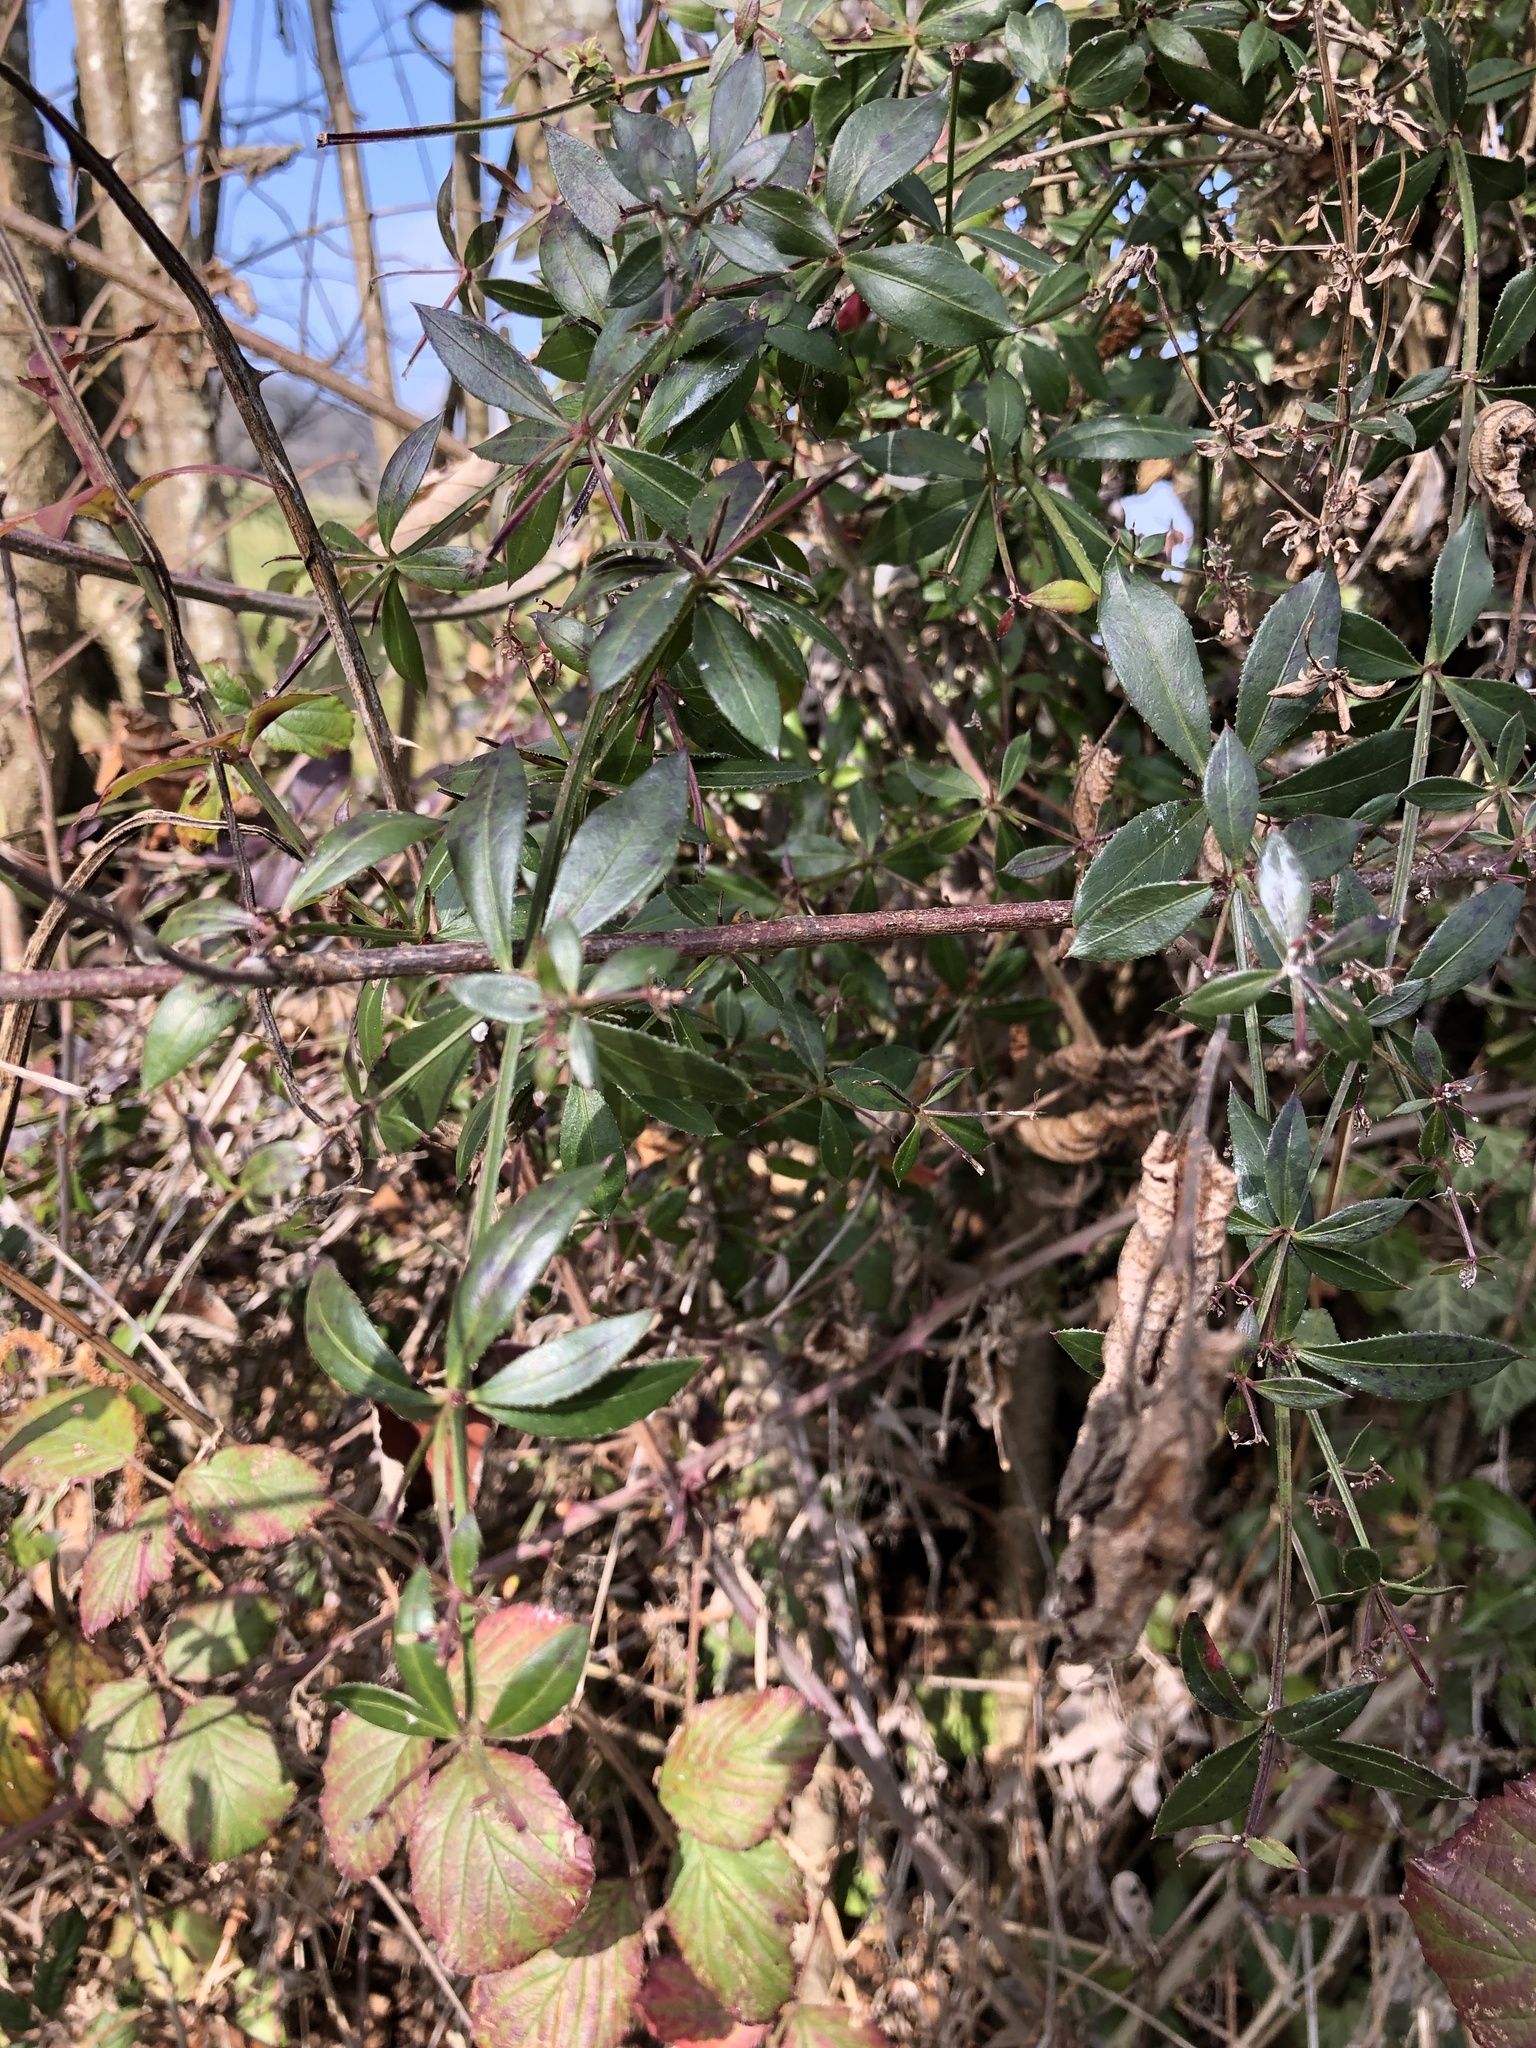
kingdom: Plantae
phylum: Tracheophyta
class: Magnoliopsida
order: Gentianales
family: Rubiaceae
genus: Rubia
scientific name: Rubia peregrina
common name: Wild madder
